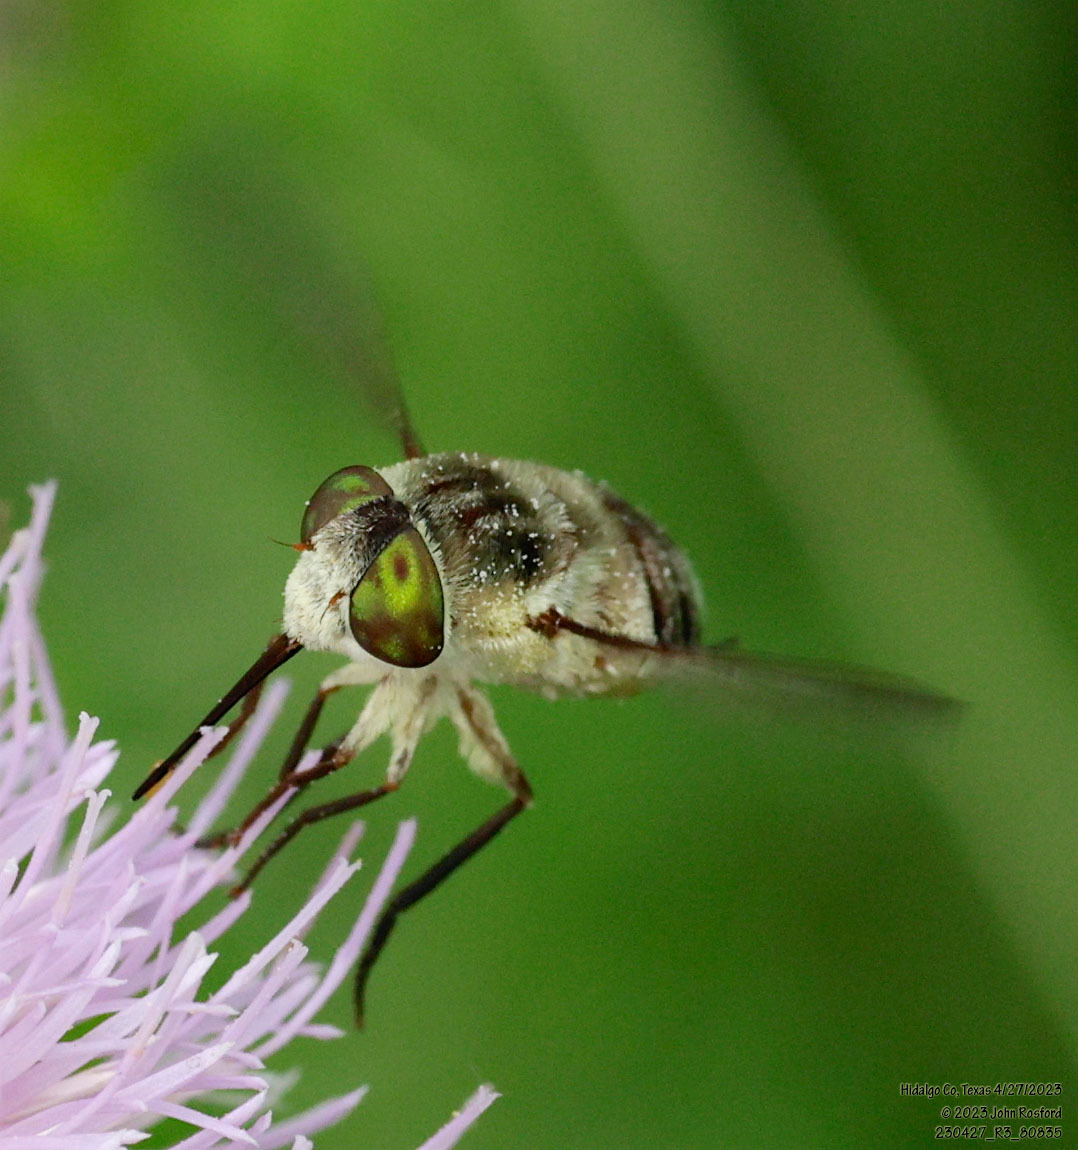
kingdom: Animalia
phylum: Arthropoda
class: Insecta
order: Diptera
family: Nemestrinidae
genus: Neorhynchocephalus
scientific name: Neorhynchocephalus volaticus
